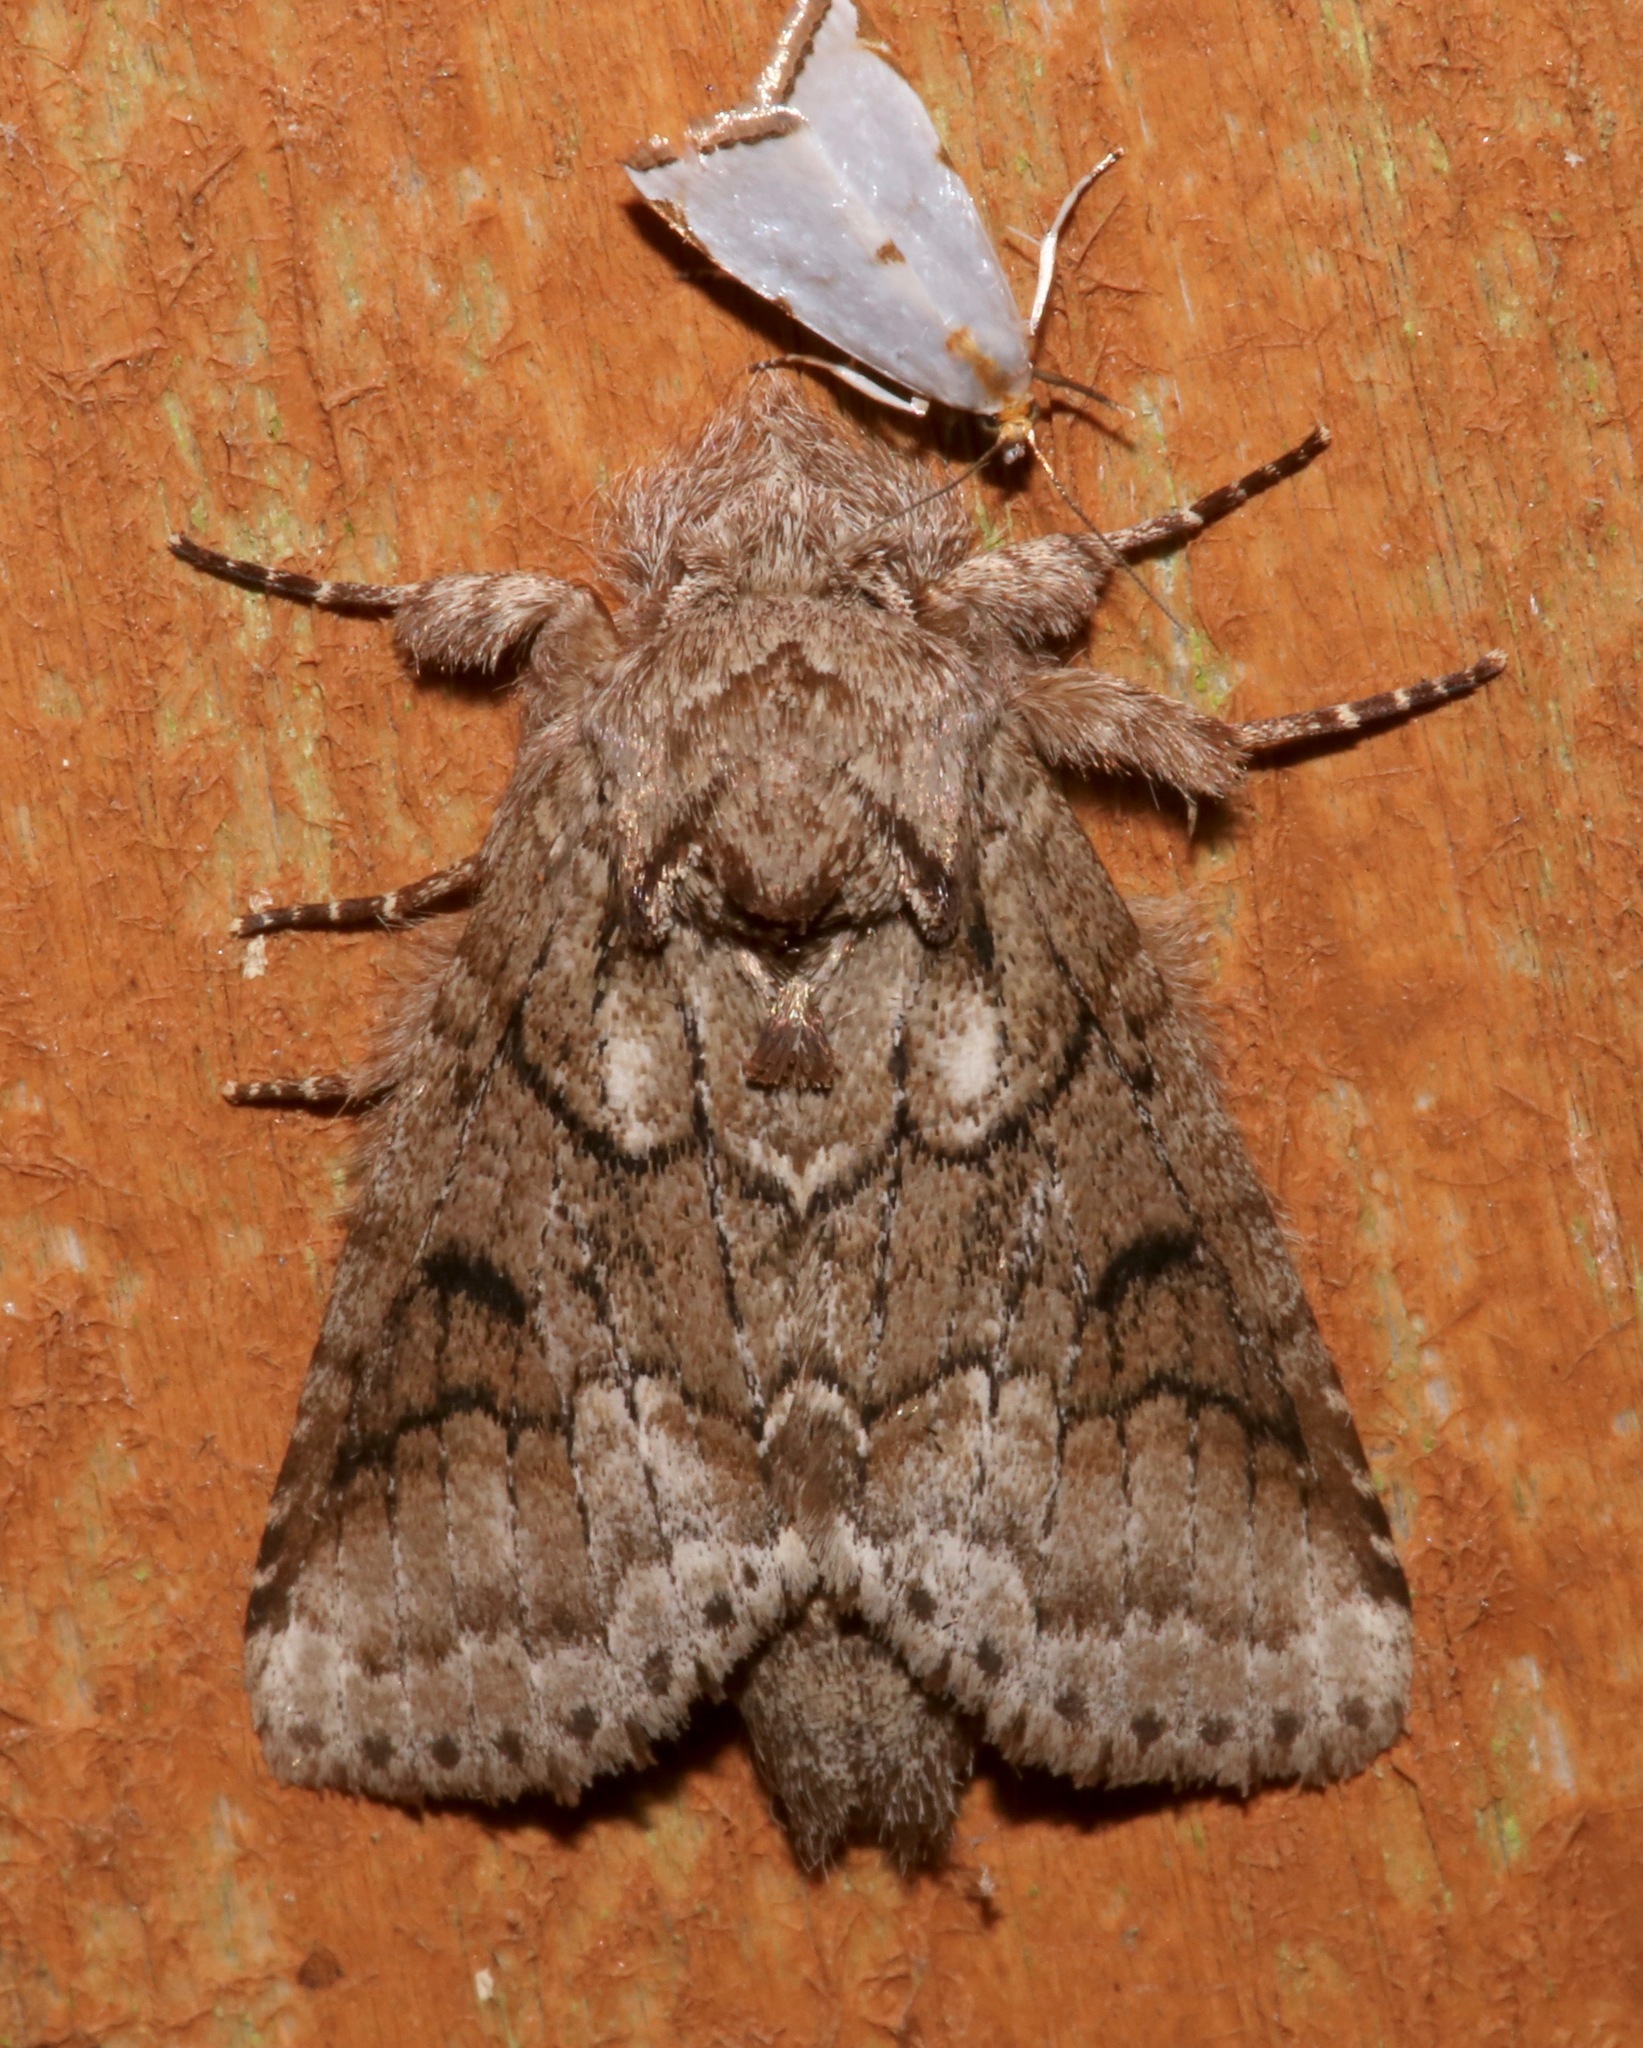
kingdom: Animalia
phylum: Arthropoda
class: Insecta
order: Lepidoptera
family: Notodontidae
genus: Lochmaeus
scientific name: Lochmaeus bilineata
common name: Double-lined prominent
